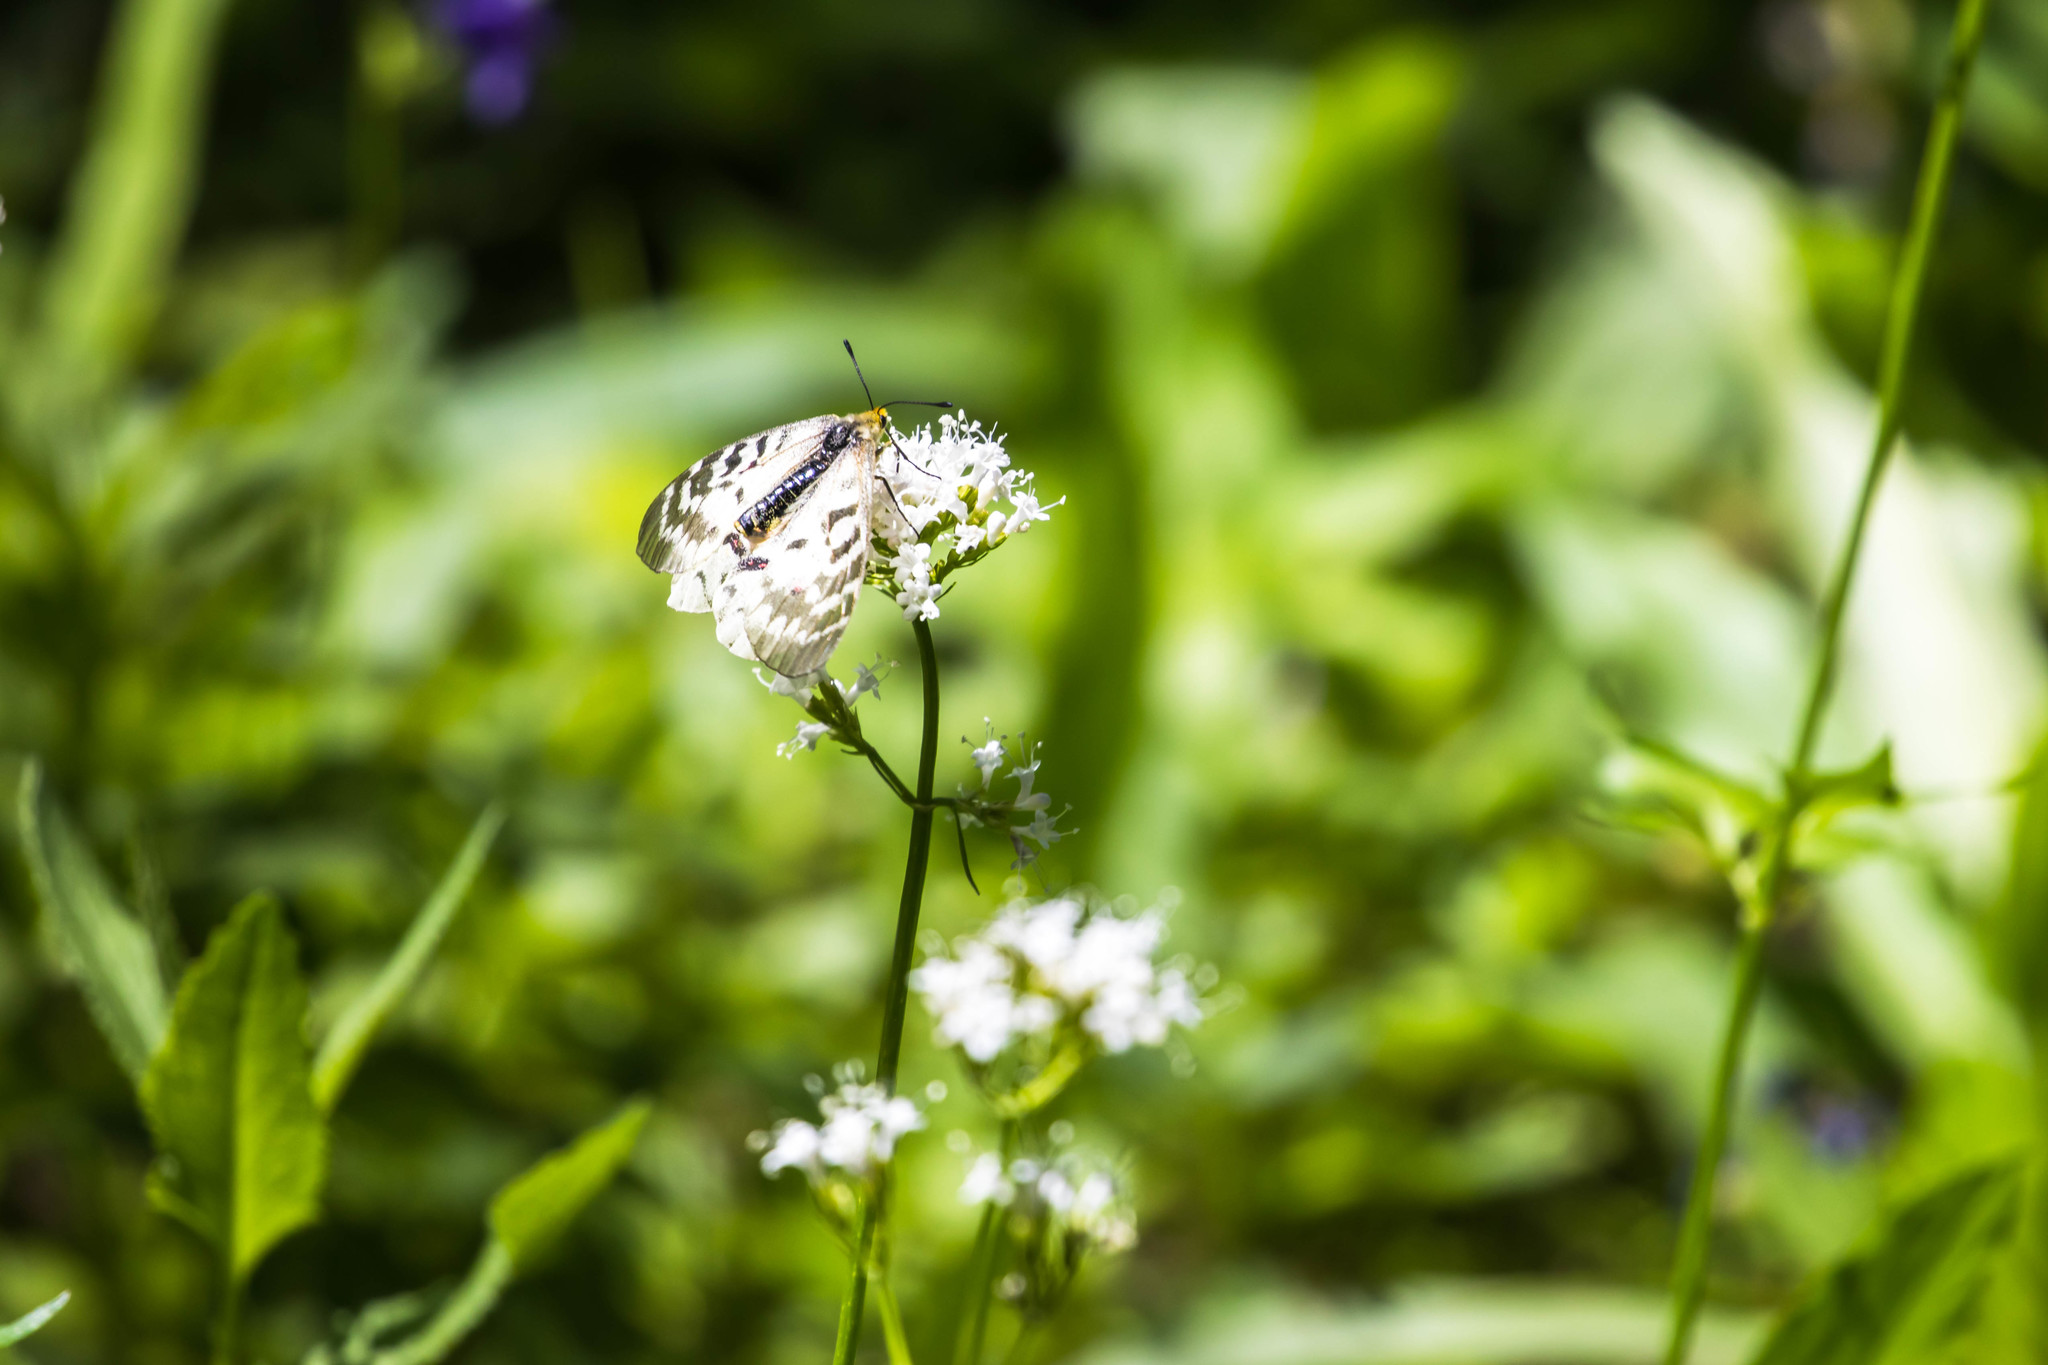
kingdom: Animalia
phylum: Arthropoda
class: Insecta
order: Lepidoptera
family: Papilionidae
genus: Parnassius
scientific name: Parnassius clodius
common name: American apollo
